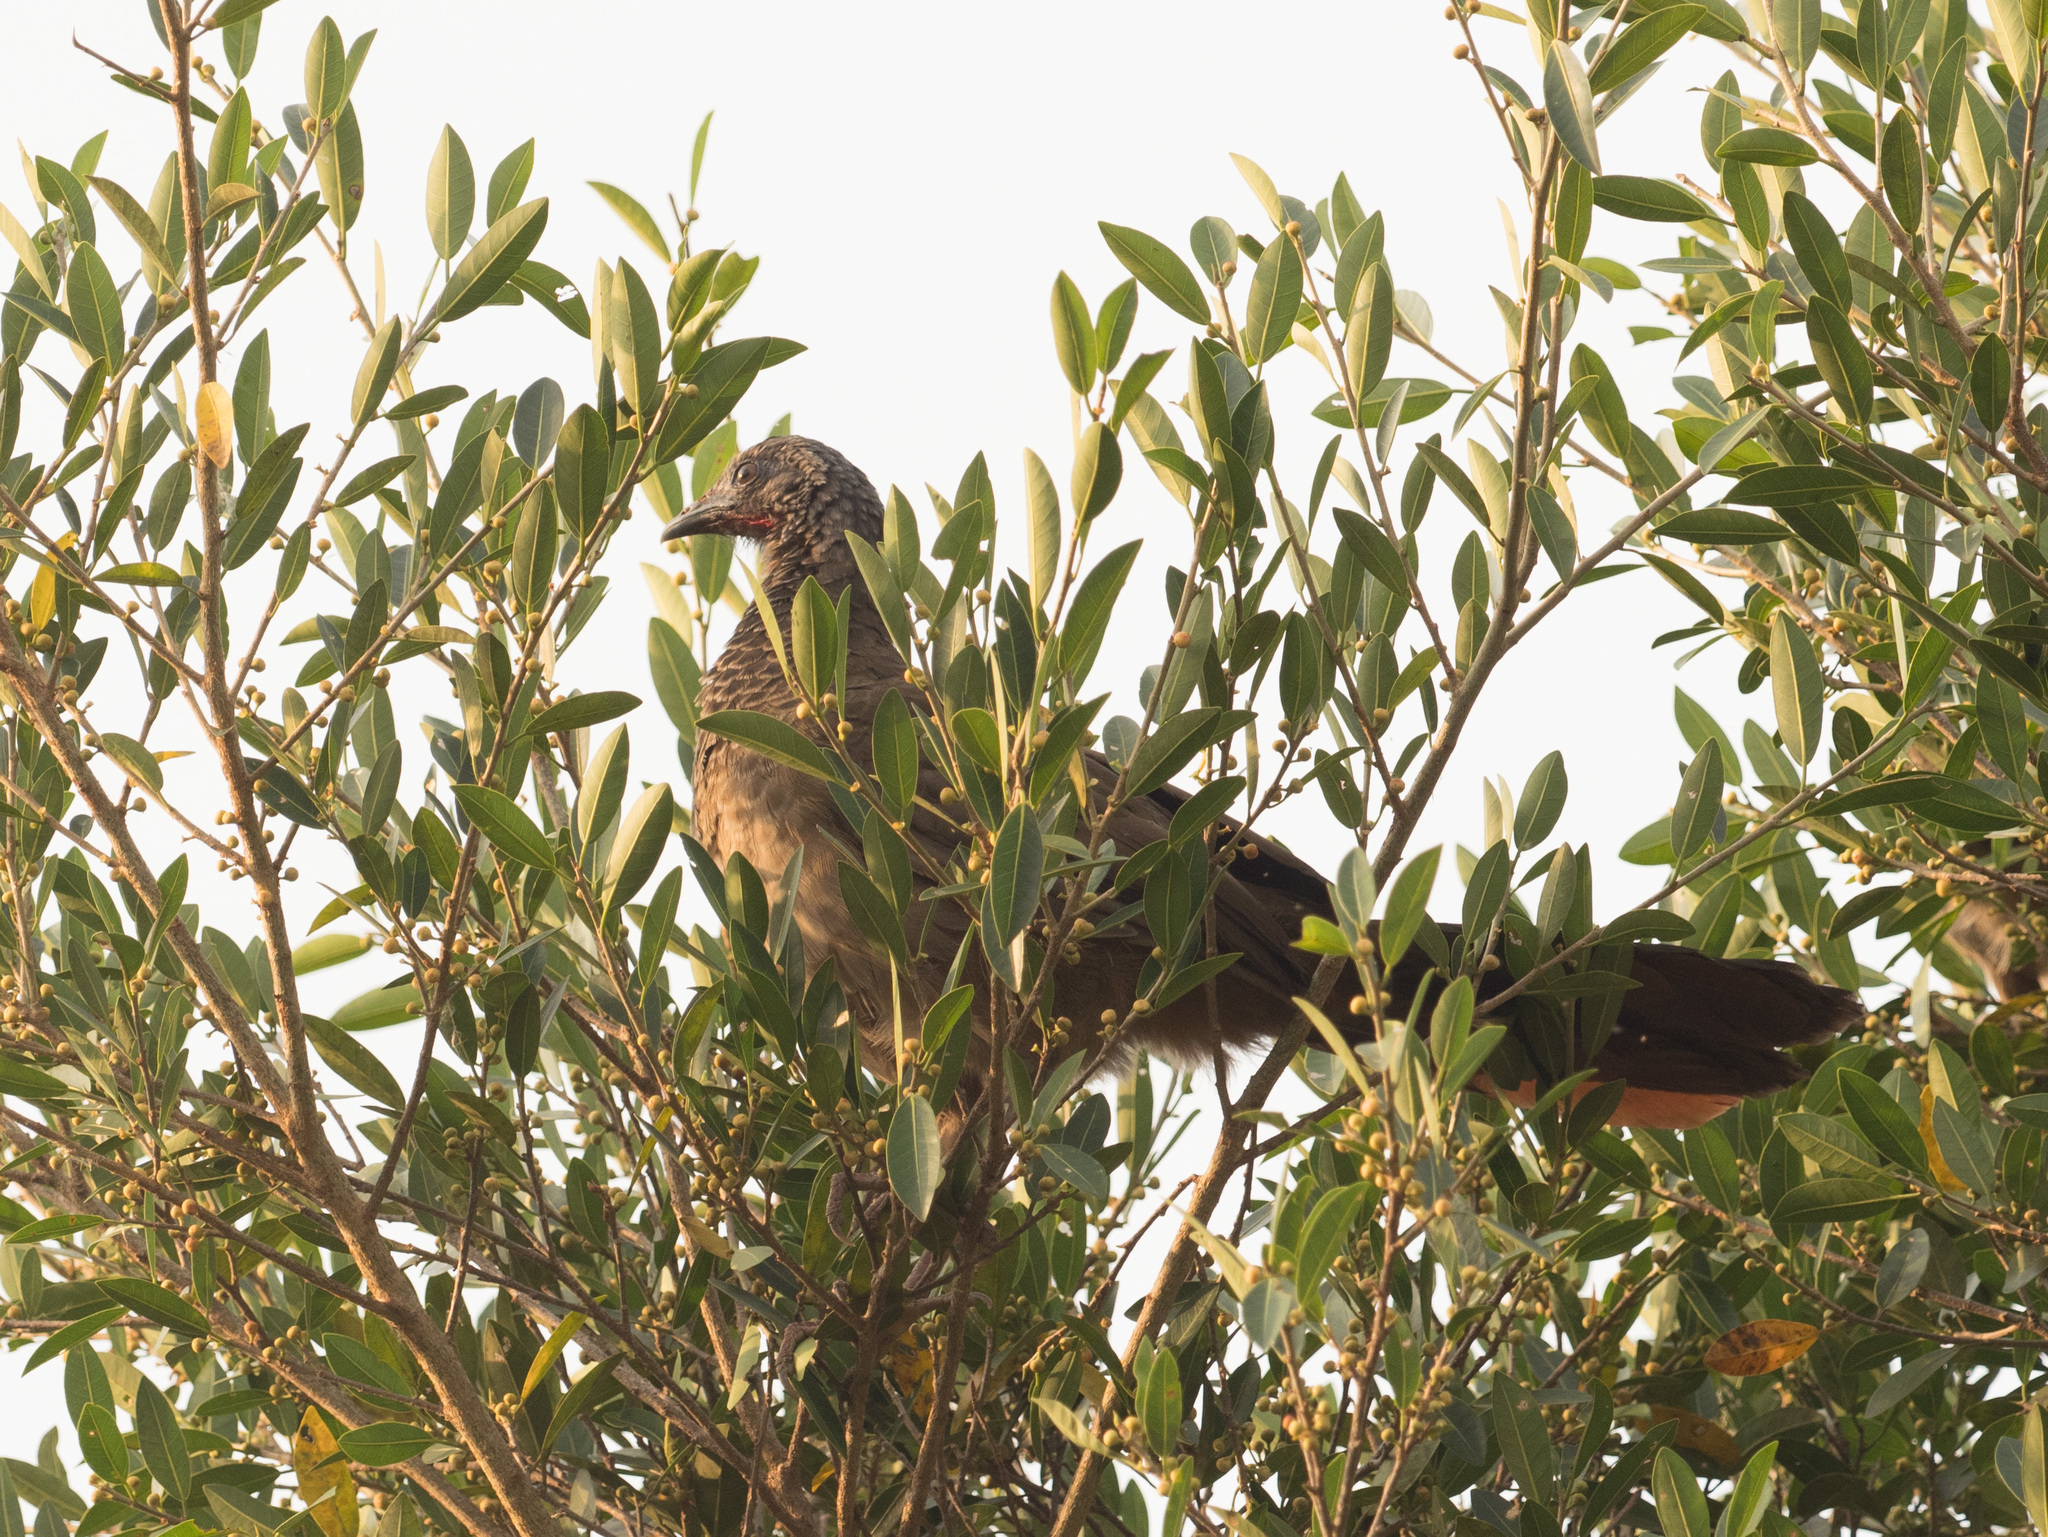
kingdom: Animalia
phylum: Chordata
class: Aves
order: Galliformes
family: Cracidae
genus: Ortalis
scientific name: Ortalis columbiana
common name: Colombian chachalaca
